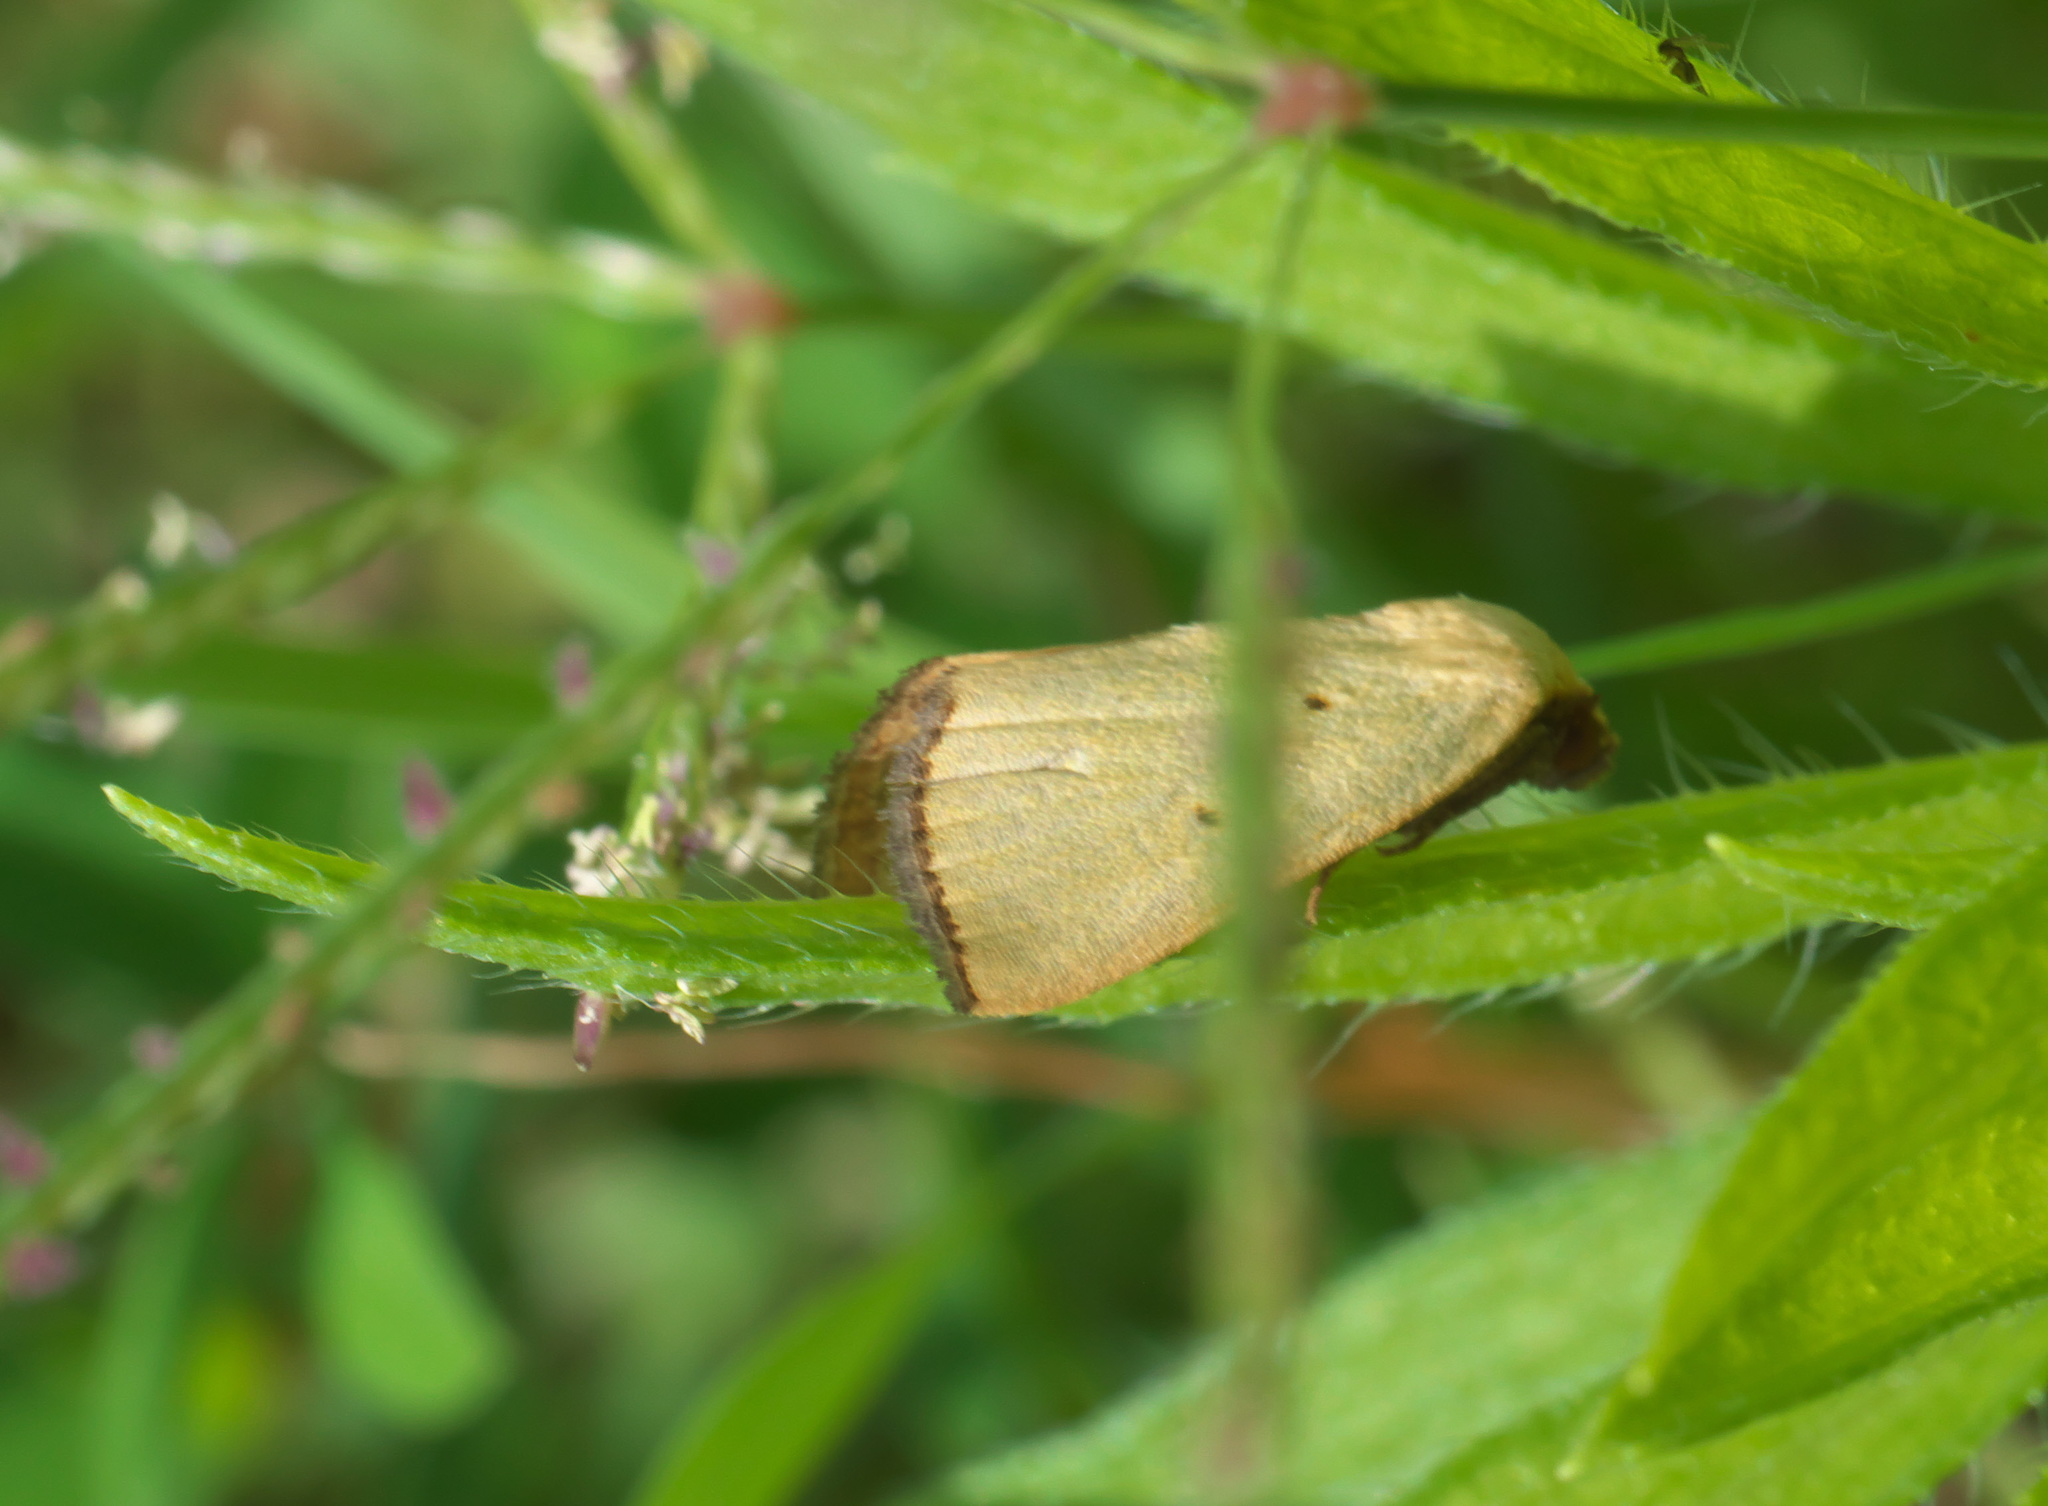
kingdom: Animalia
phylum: Arthropoda
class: Insecta
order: Lepidoptera
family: Noctuidae
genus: Marimatha
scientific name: Marimatha nigrofimbria
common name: Black-bordered lemon moth
